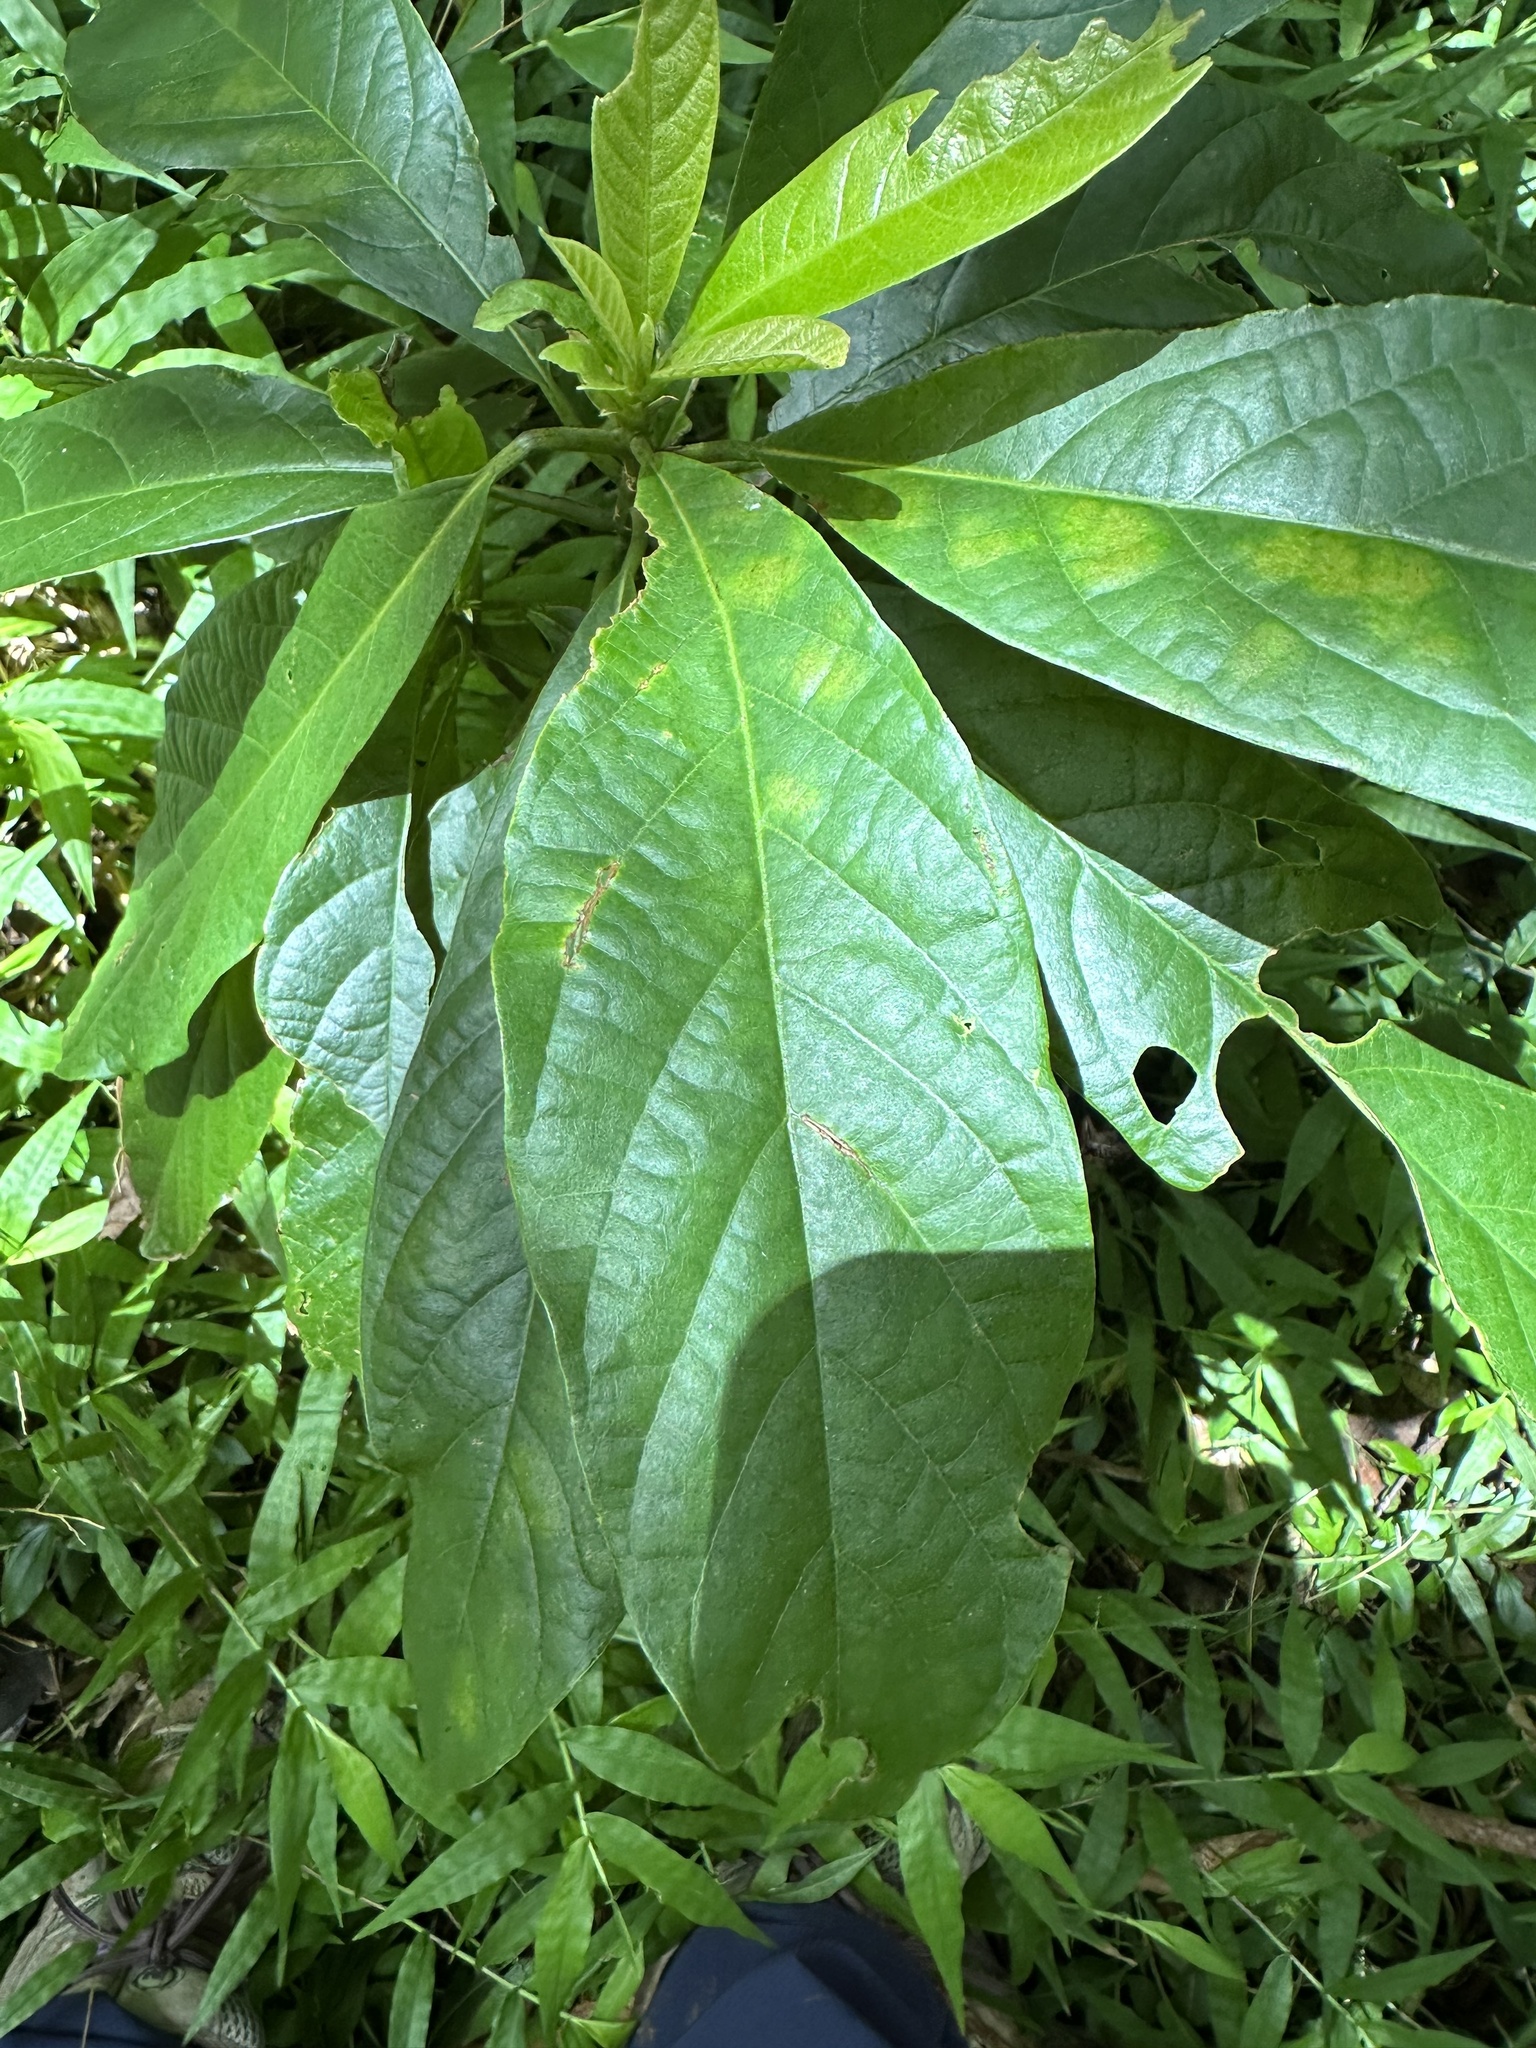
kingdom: Plantae
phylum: Tracheophyta
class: Magnoliopsida
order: Laurales
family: Lauraceae
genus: Persea
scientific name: Persea americana
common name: Avocado
